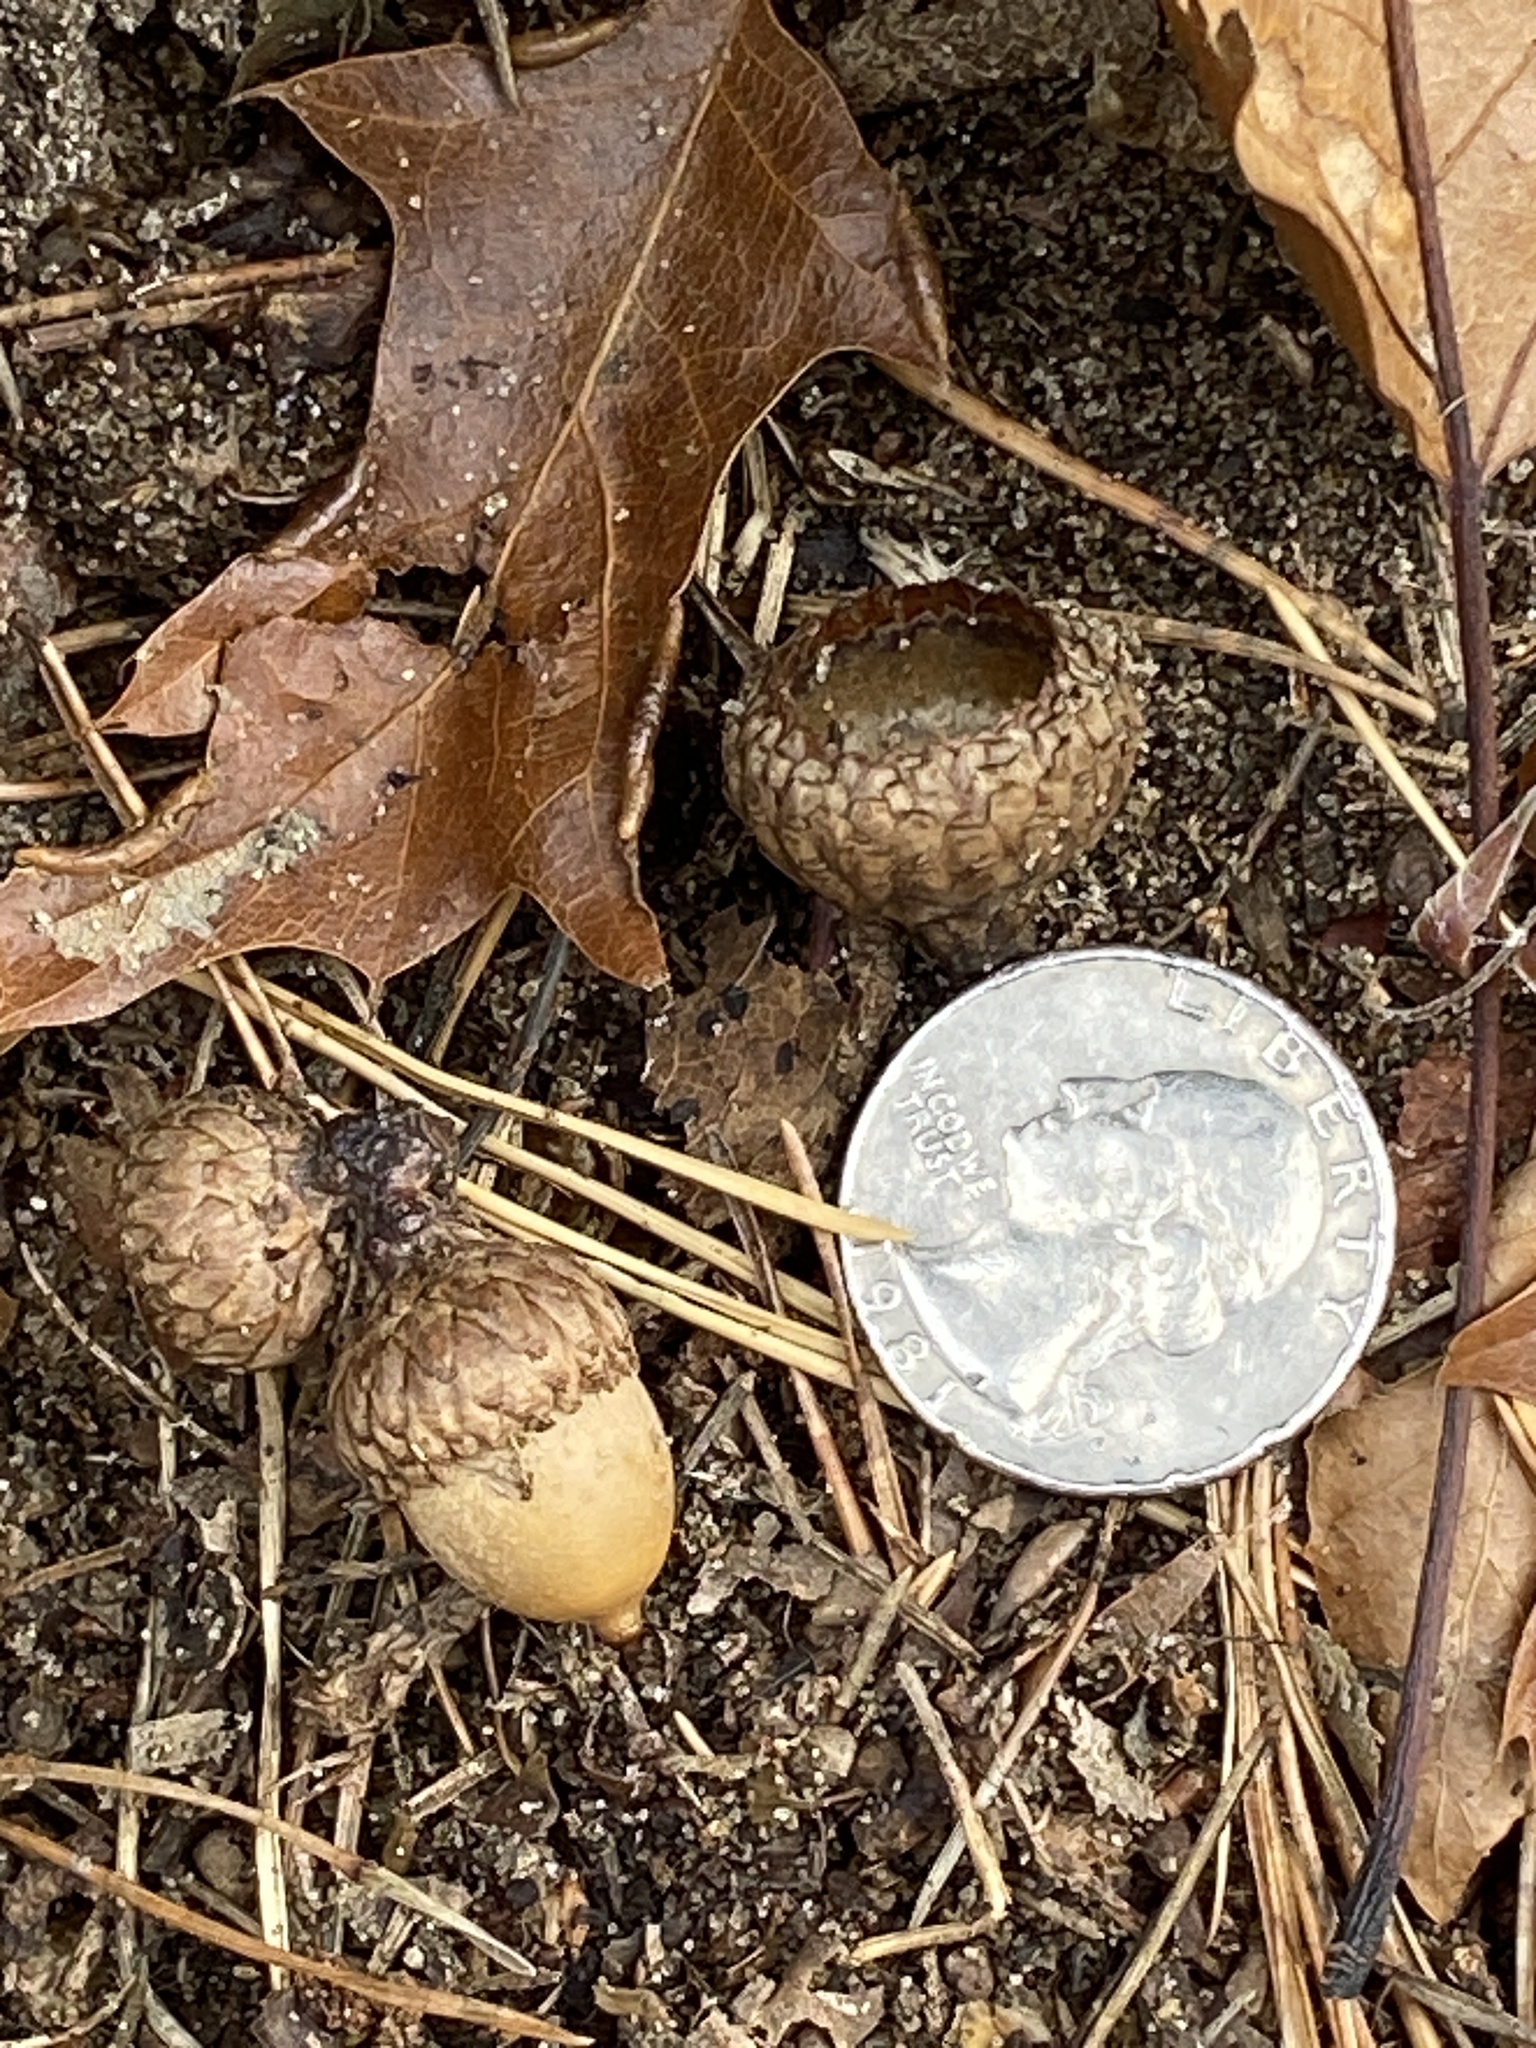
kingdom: Plantae
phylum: Tracheophyta
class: Magnoliopsida
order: Fagales
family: Fagaceae
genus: Quercus
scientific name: Quercus velutina
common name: Black oak
